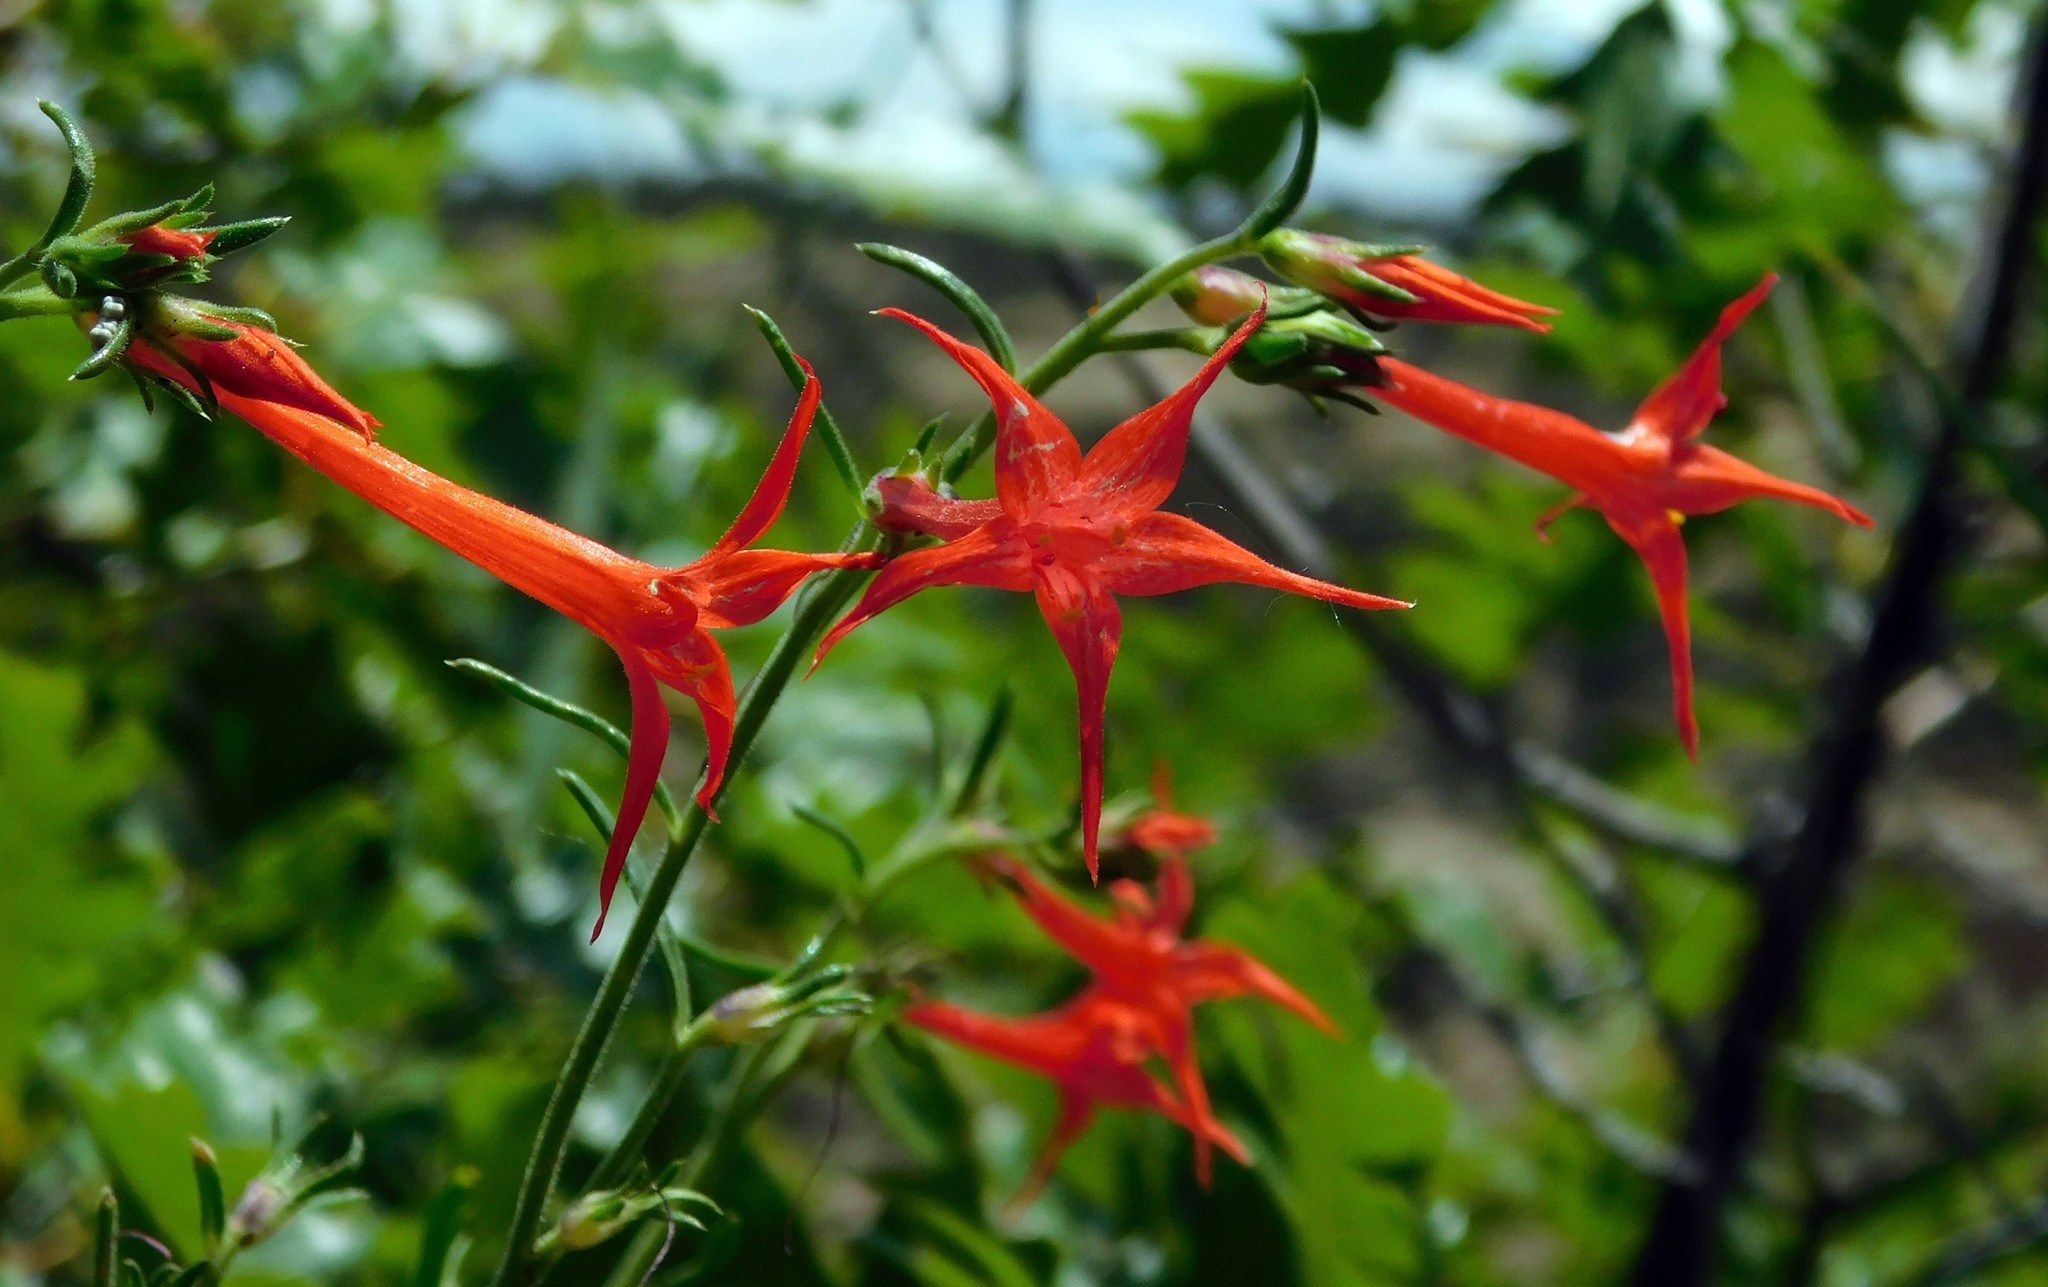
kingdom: Plantae
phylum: Tracheophyta
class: Magnoliopsida
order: Ericales
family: Polemoniaceae
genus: Ipomopsis
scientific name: Ipomopsis aggregata
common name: Scarlet gilia
